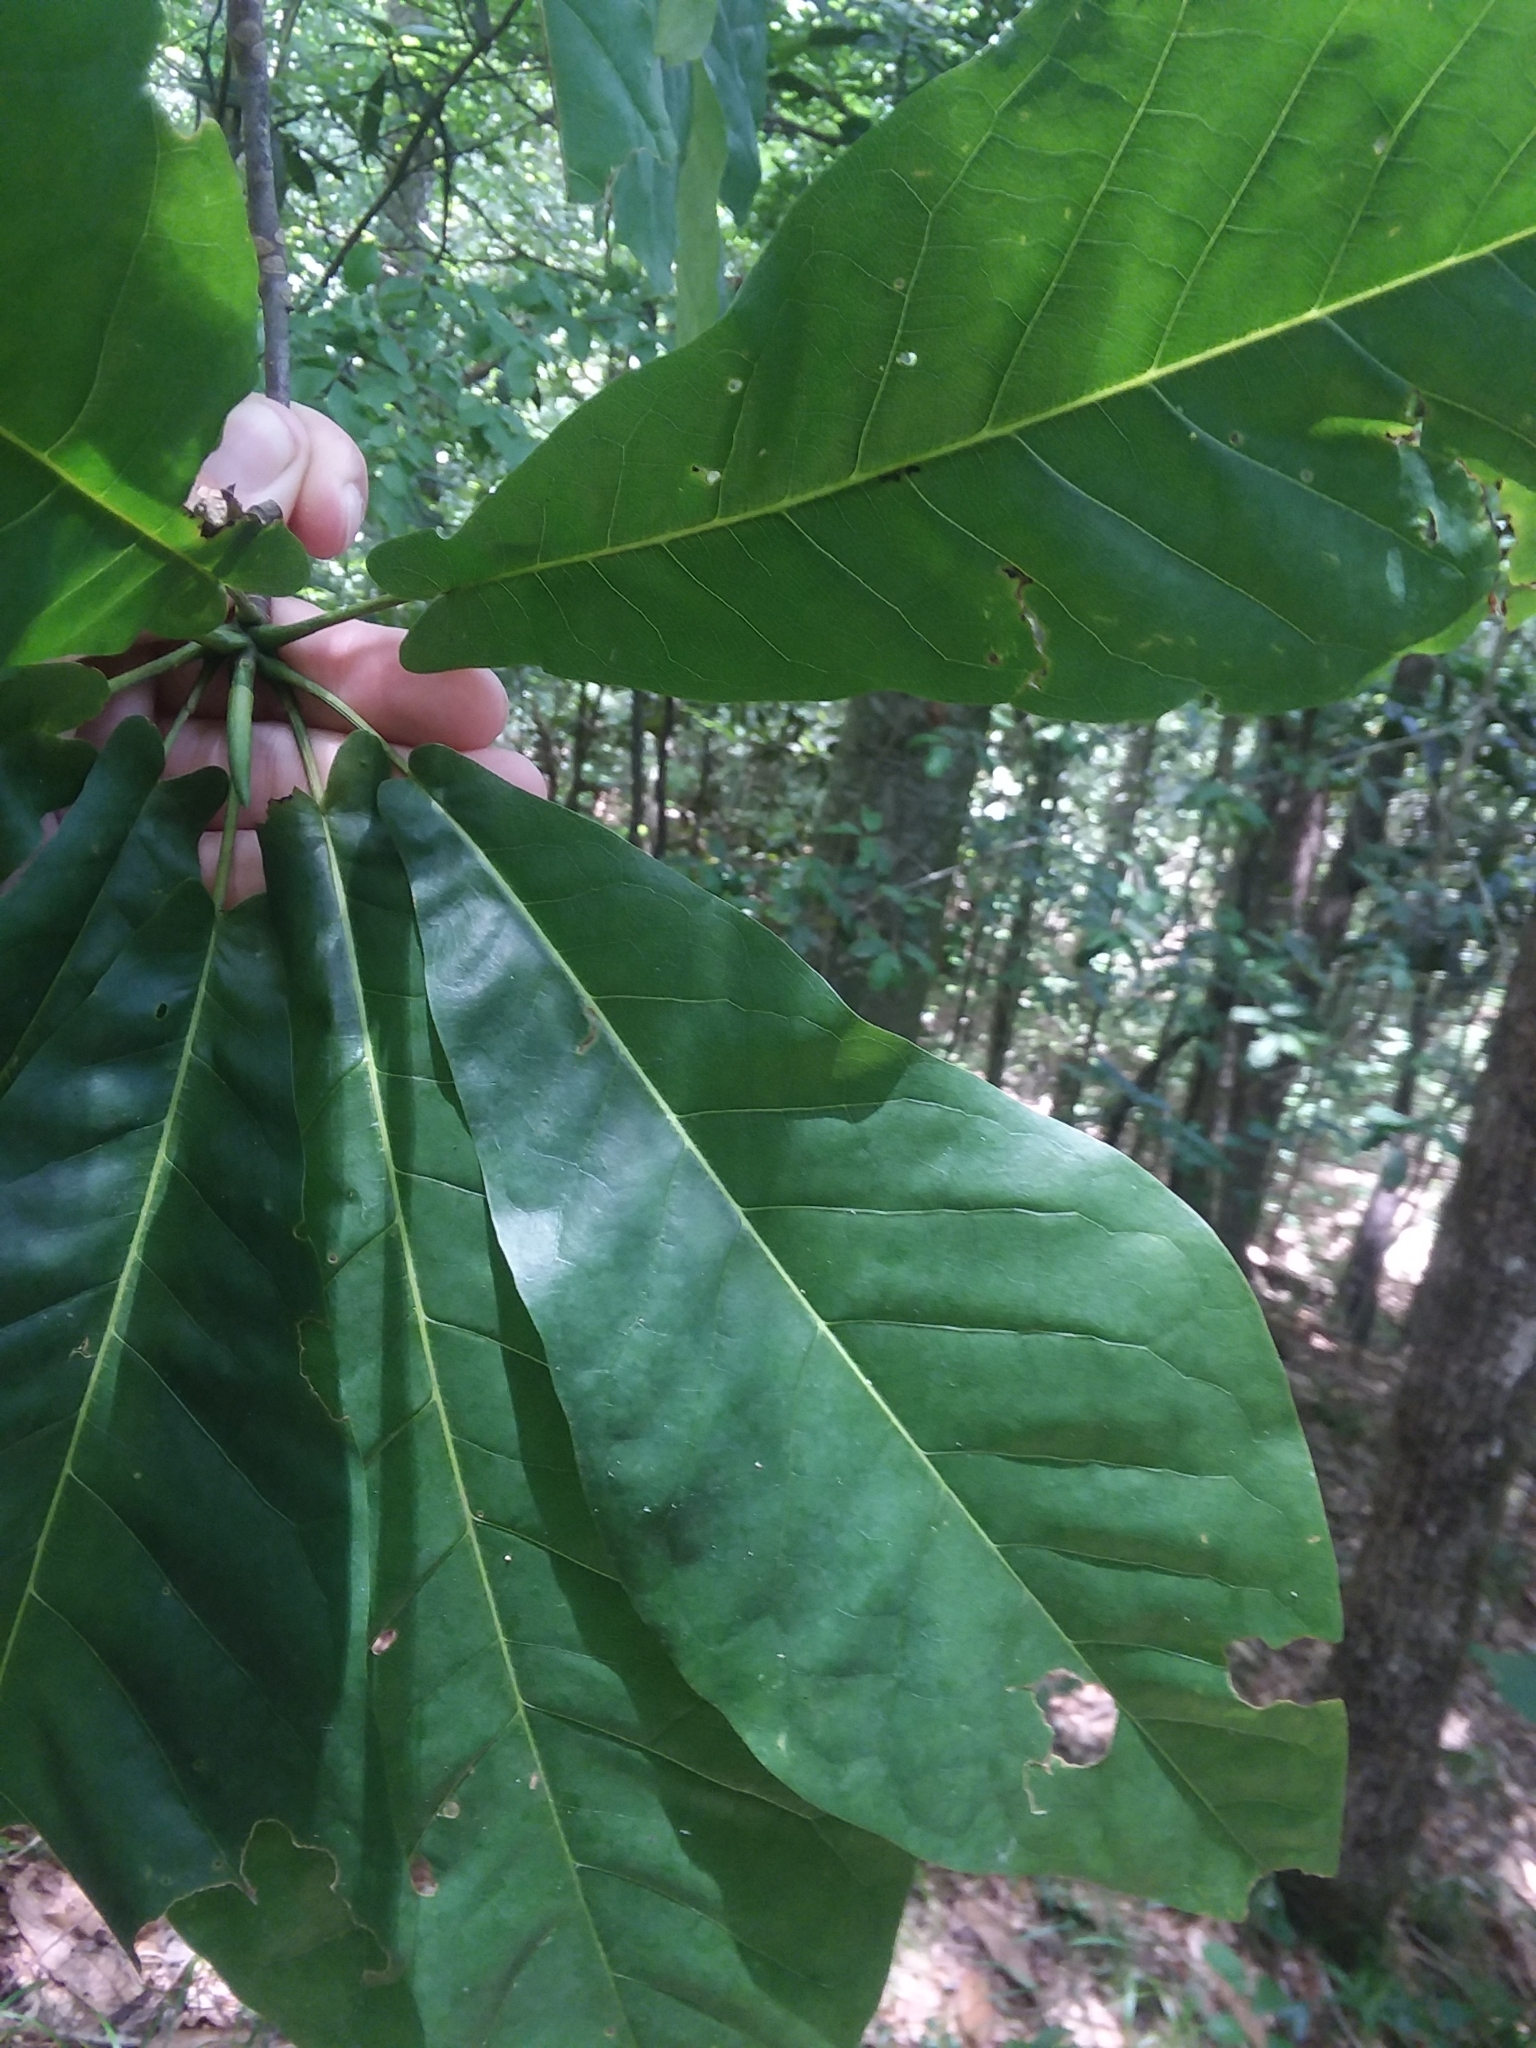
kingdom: Plantae
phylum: Tracheophyta
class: Magnoliopsida
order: Magnoliales
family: Magnoliaceae
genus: Magnolia
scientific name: Magnolia fraseri
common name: Fraser's magnolia
